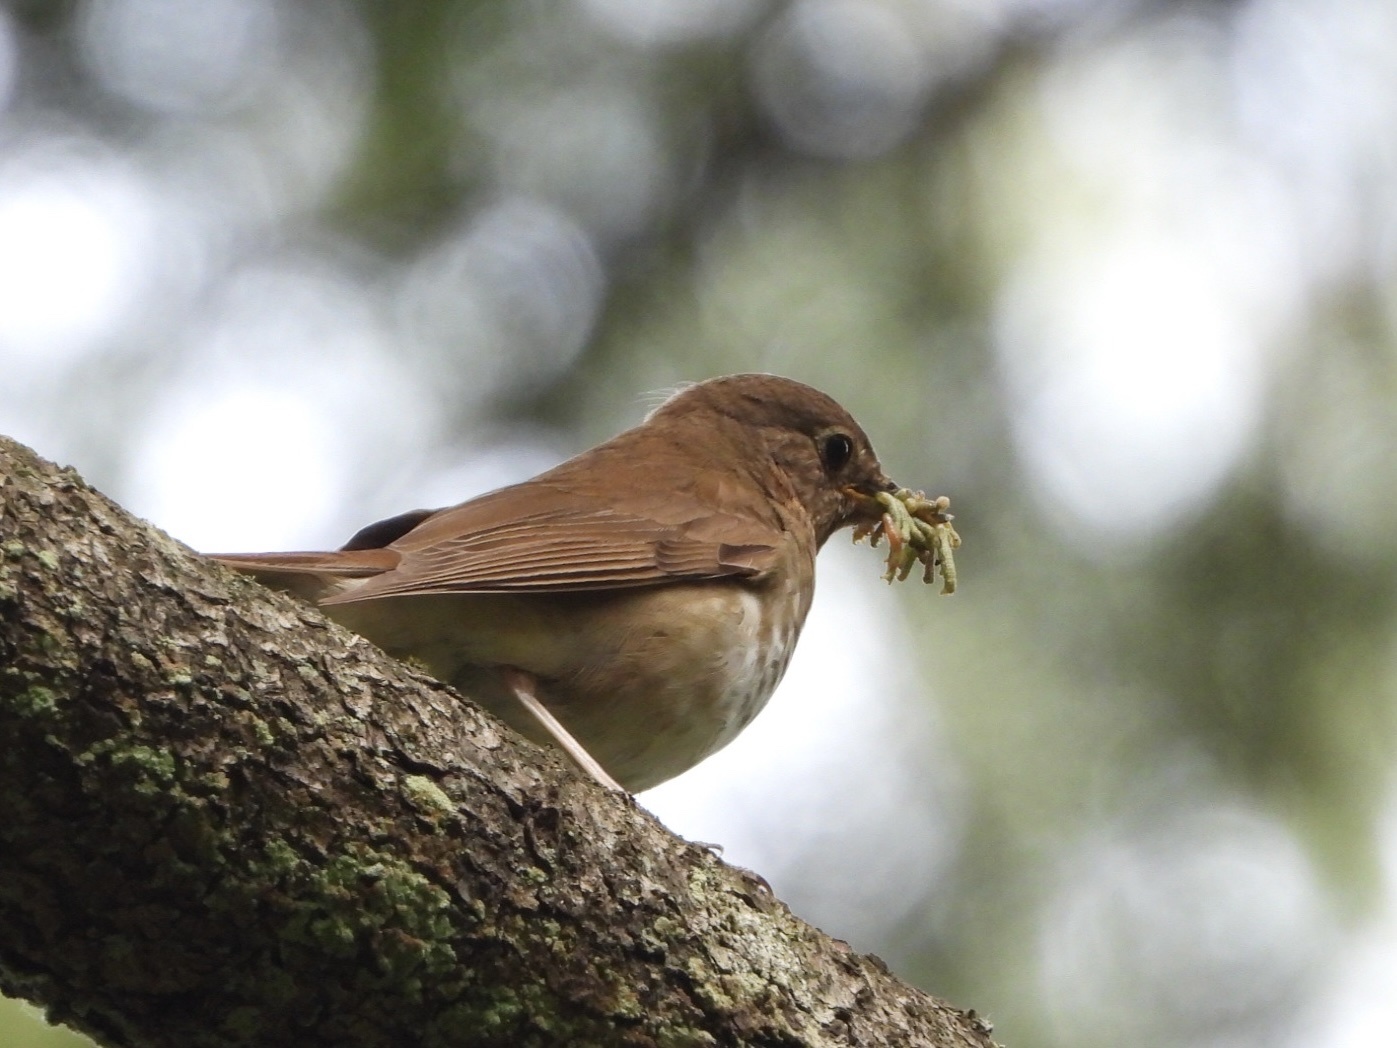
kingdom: Animalia
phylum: Chordata
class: Aves
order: Passeriformes
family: Turdidae
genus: Catharus
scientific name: Catharus ustulatus
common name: Swainson's thrush
